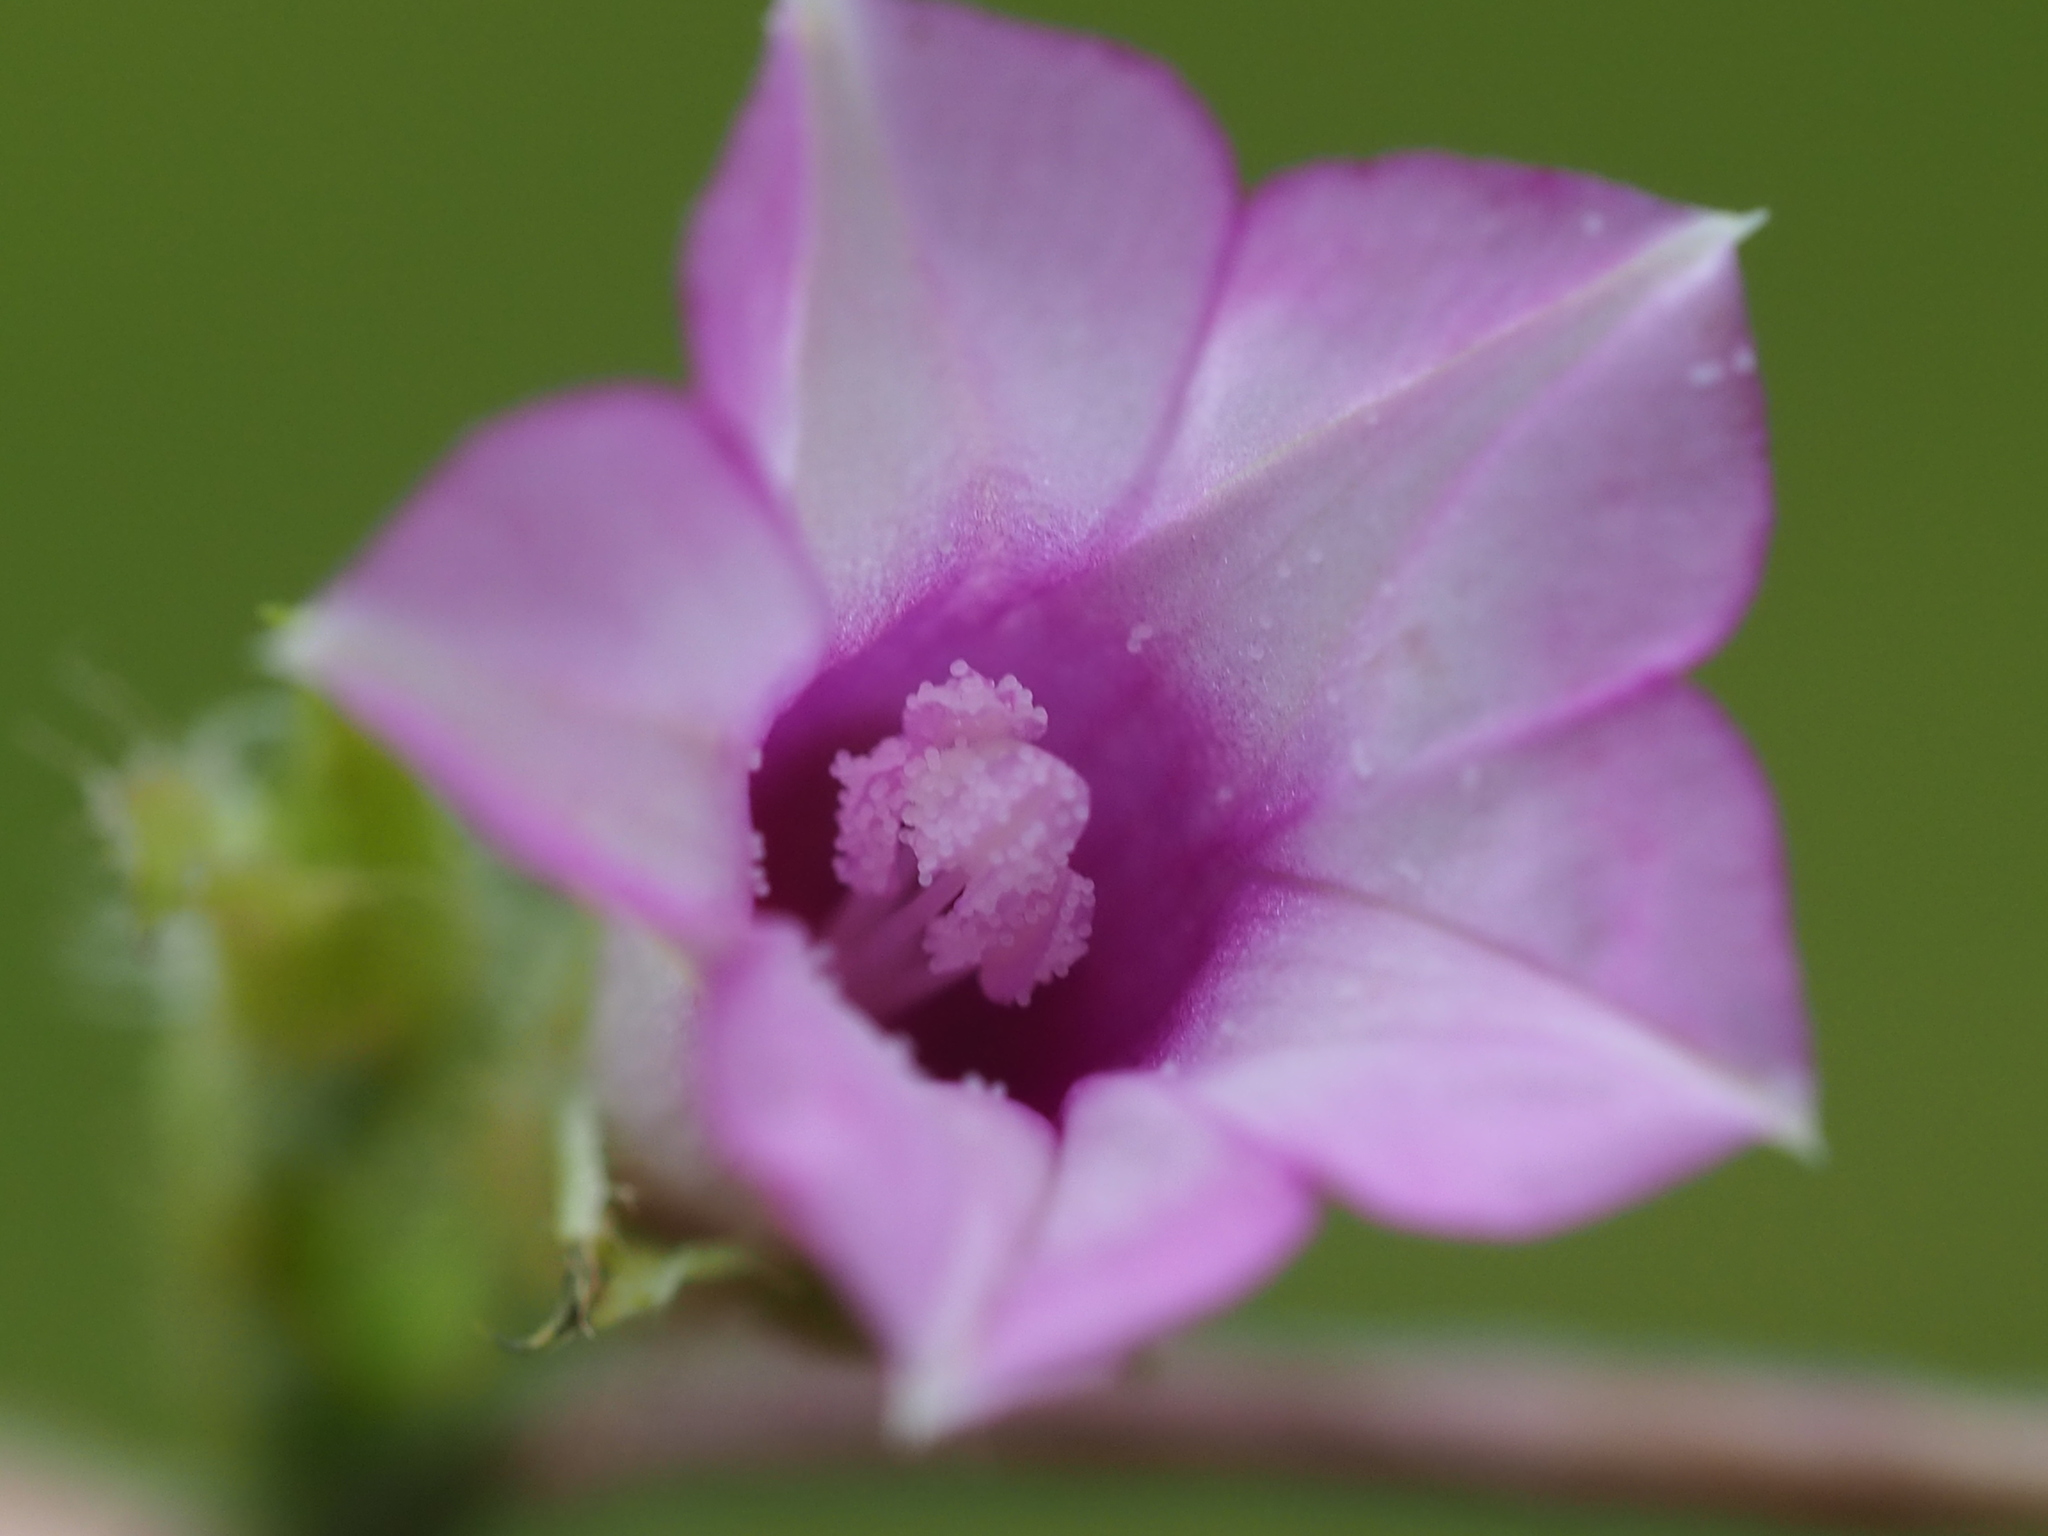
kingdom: Plantae
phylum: Tracheophyta
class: Magnoliopsida
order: Solanales
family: Convolvulaceae
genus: Ipomoea
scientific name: Ipomoea triloba
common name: Little-bell
